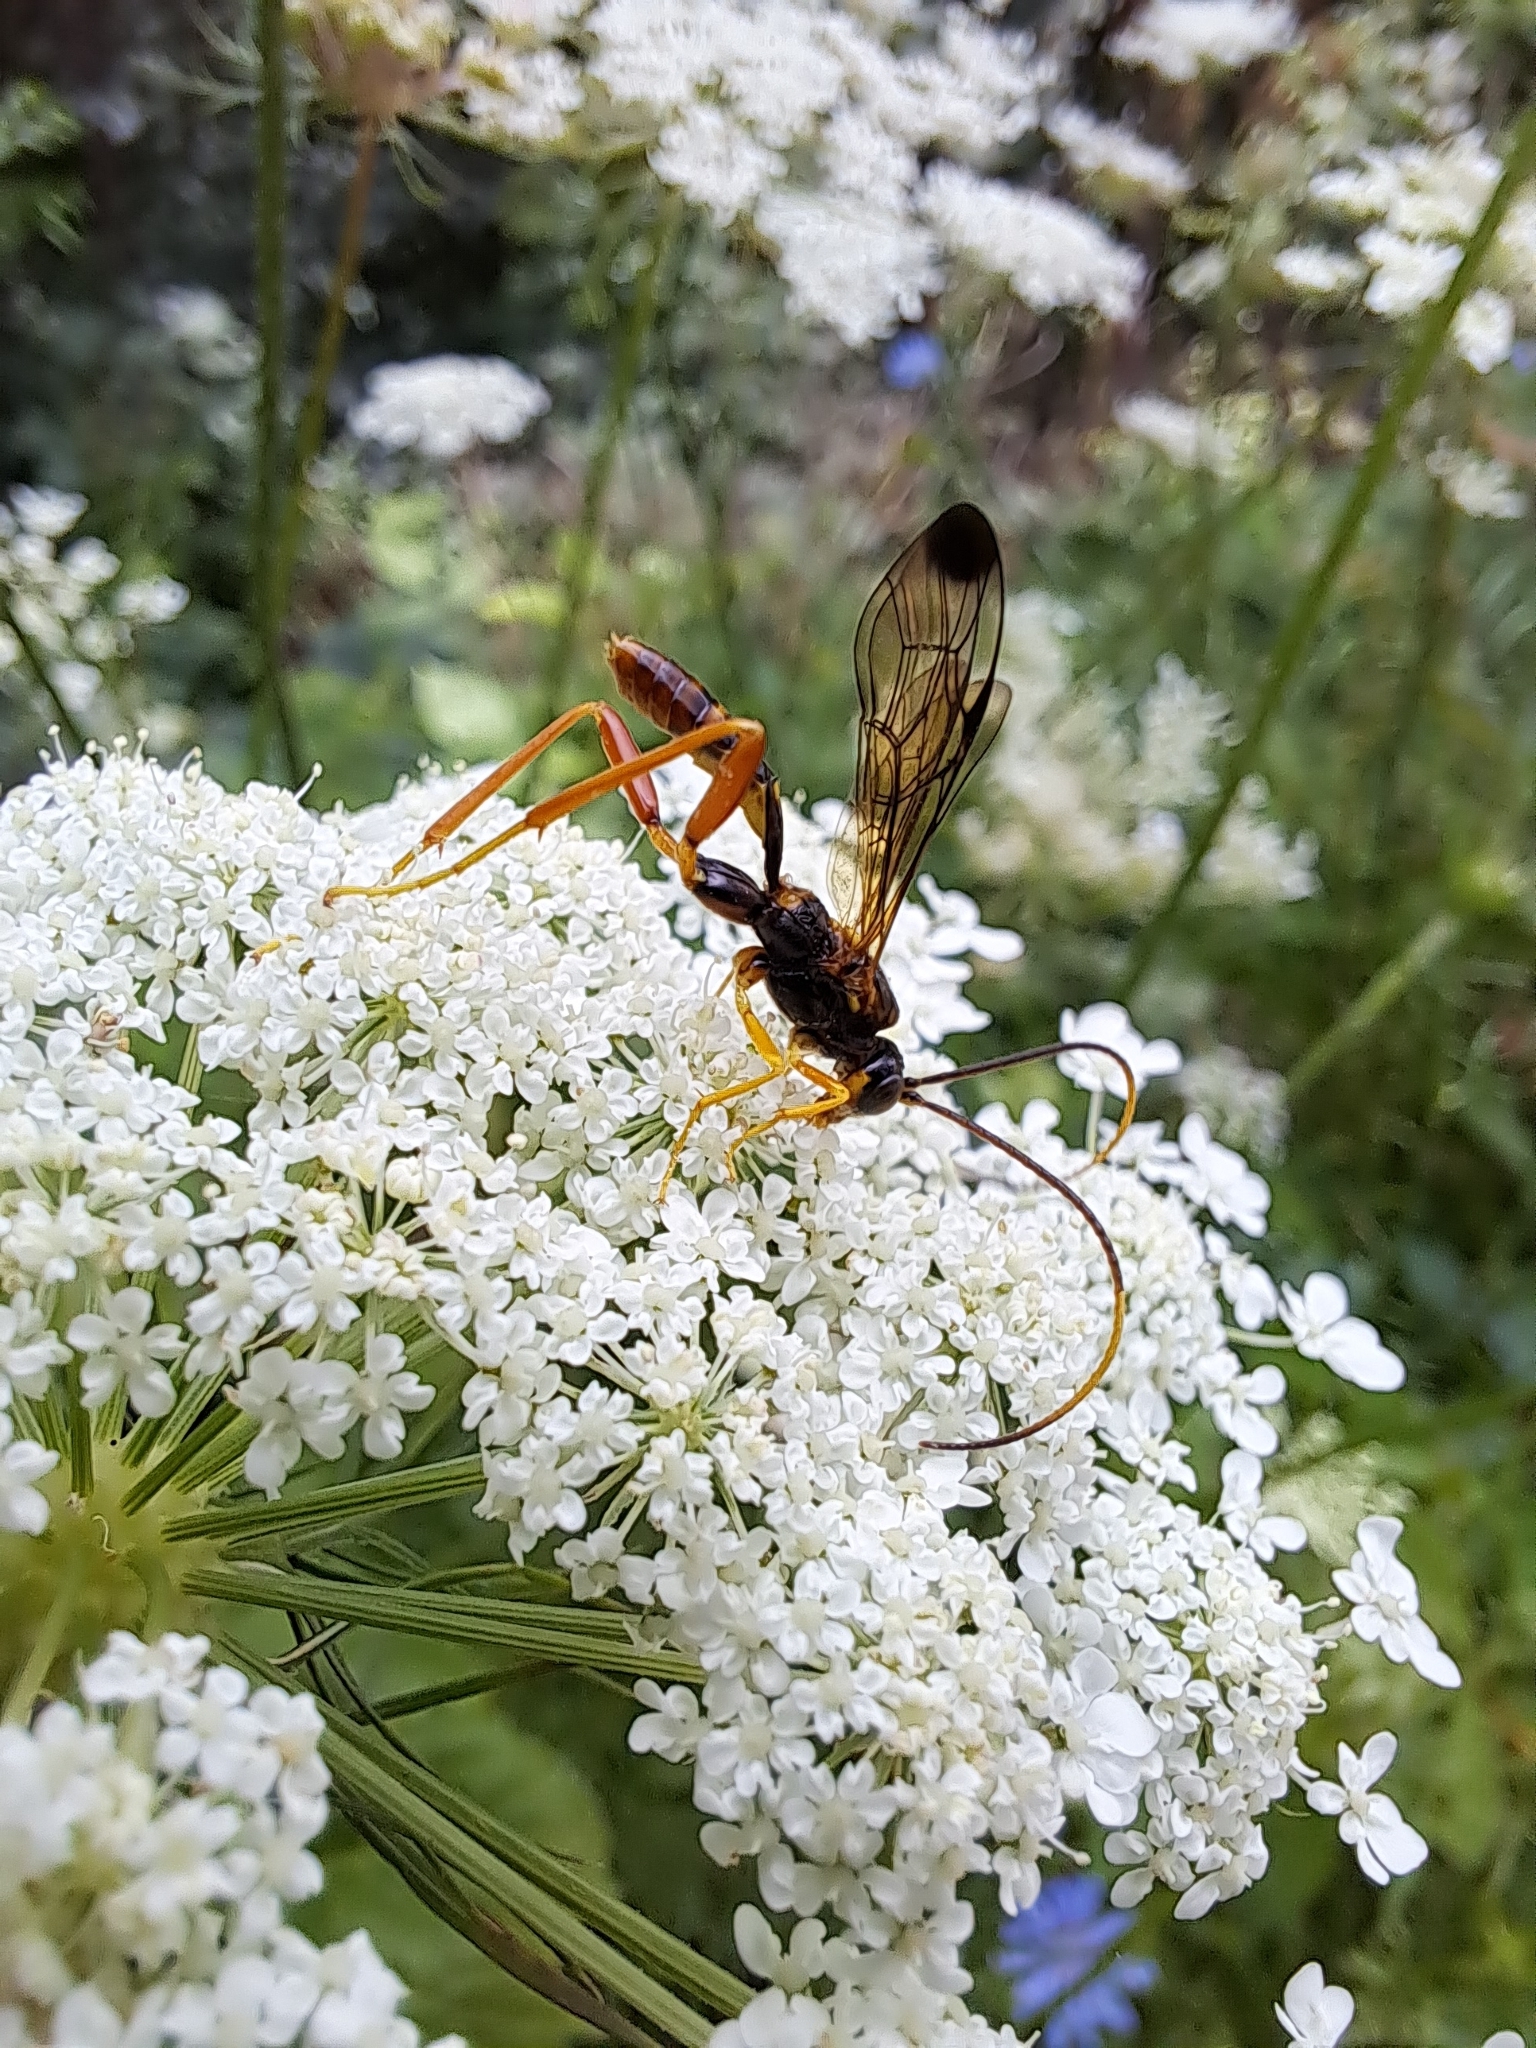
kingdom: Animalia
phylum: Arthropoda
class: Insecta
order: Hymenoptera
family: Ichneumonidae
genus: Spilopteron
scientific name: Spilopteron vicinum
